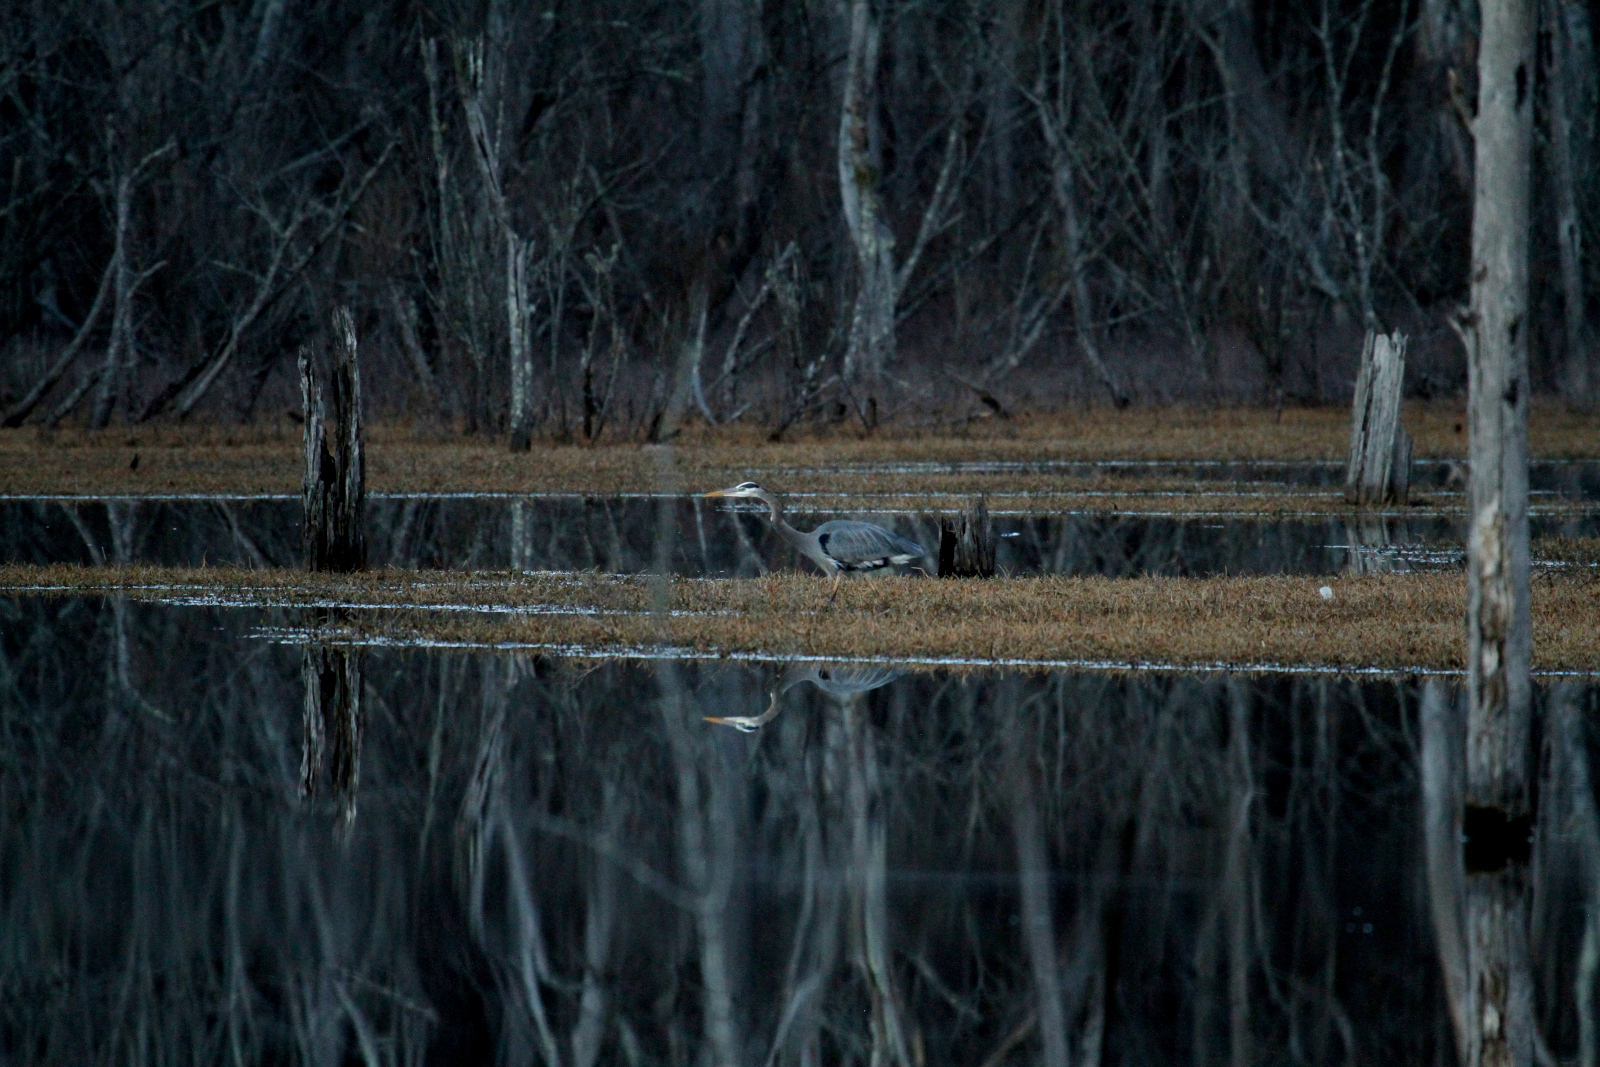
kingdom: Animalia
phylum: Chordata
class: Aves
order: Pelecaniformes
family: Ardeidae
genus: Ardea
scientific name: Ardea herodias
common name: Great blue heron
